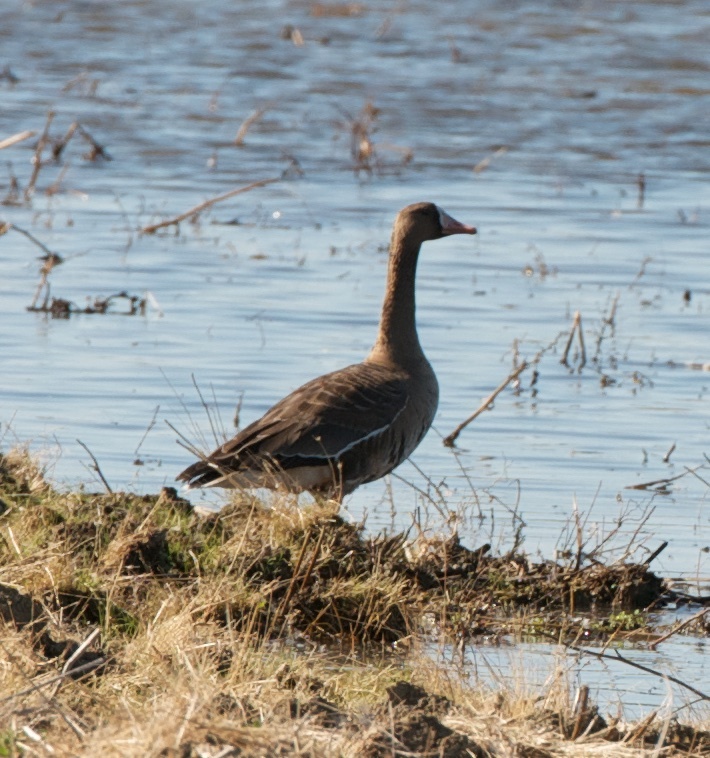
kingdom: Animalia
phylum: Chordata
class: Aves
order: Anseriformes
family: Anatidae
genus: Anser
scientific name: Anser albifrons
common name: Greater white-fronted goose
